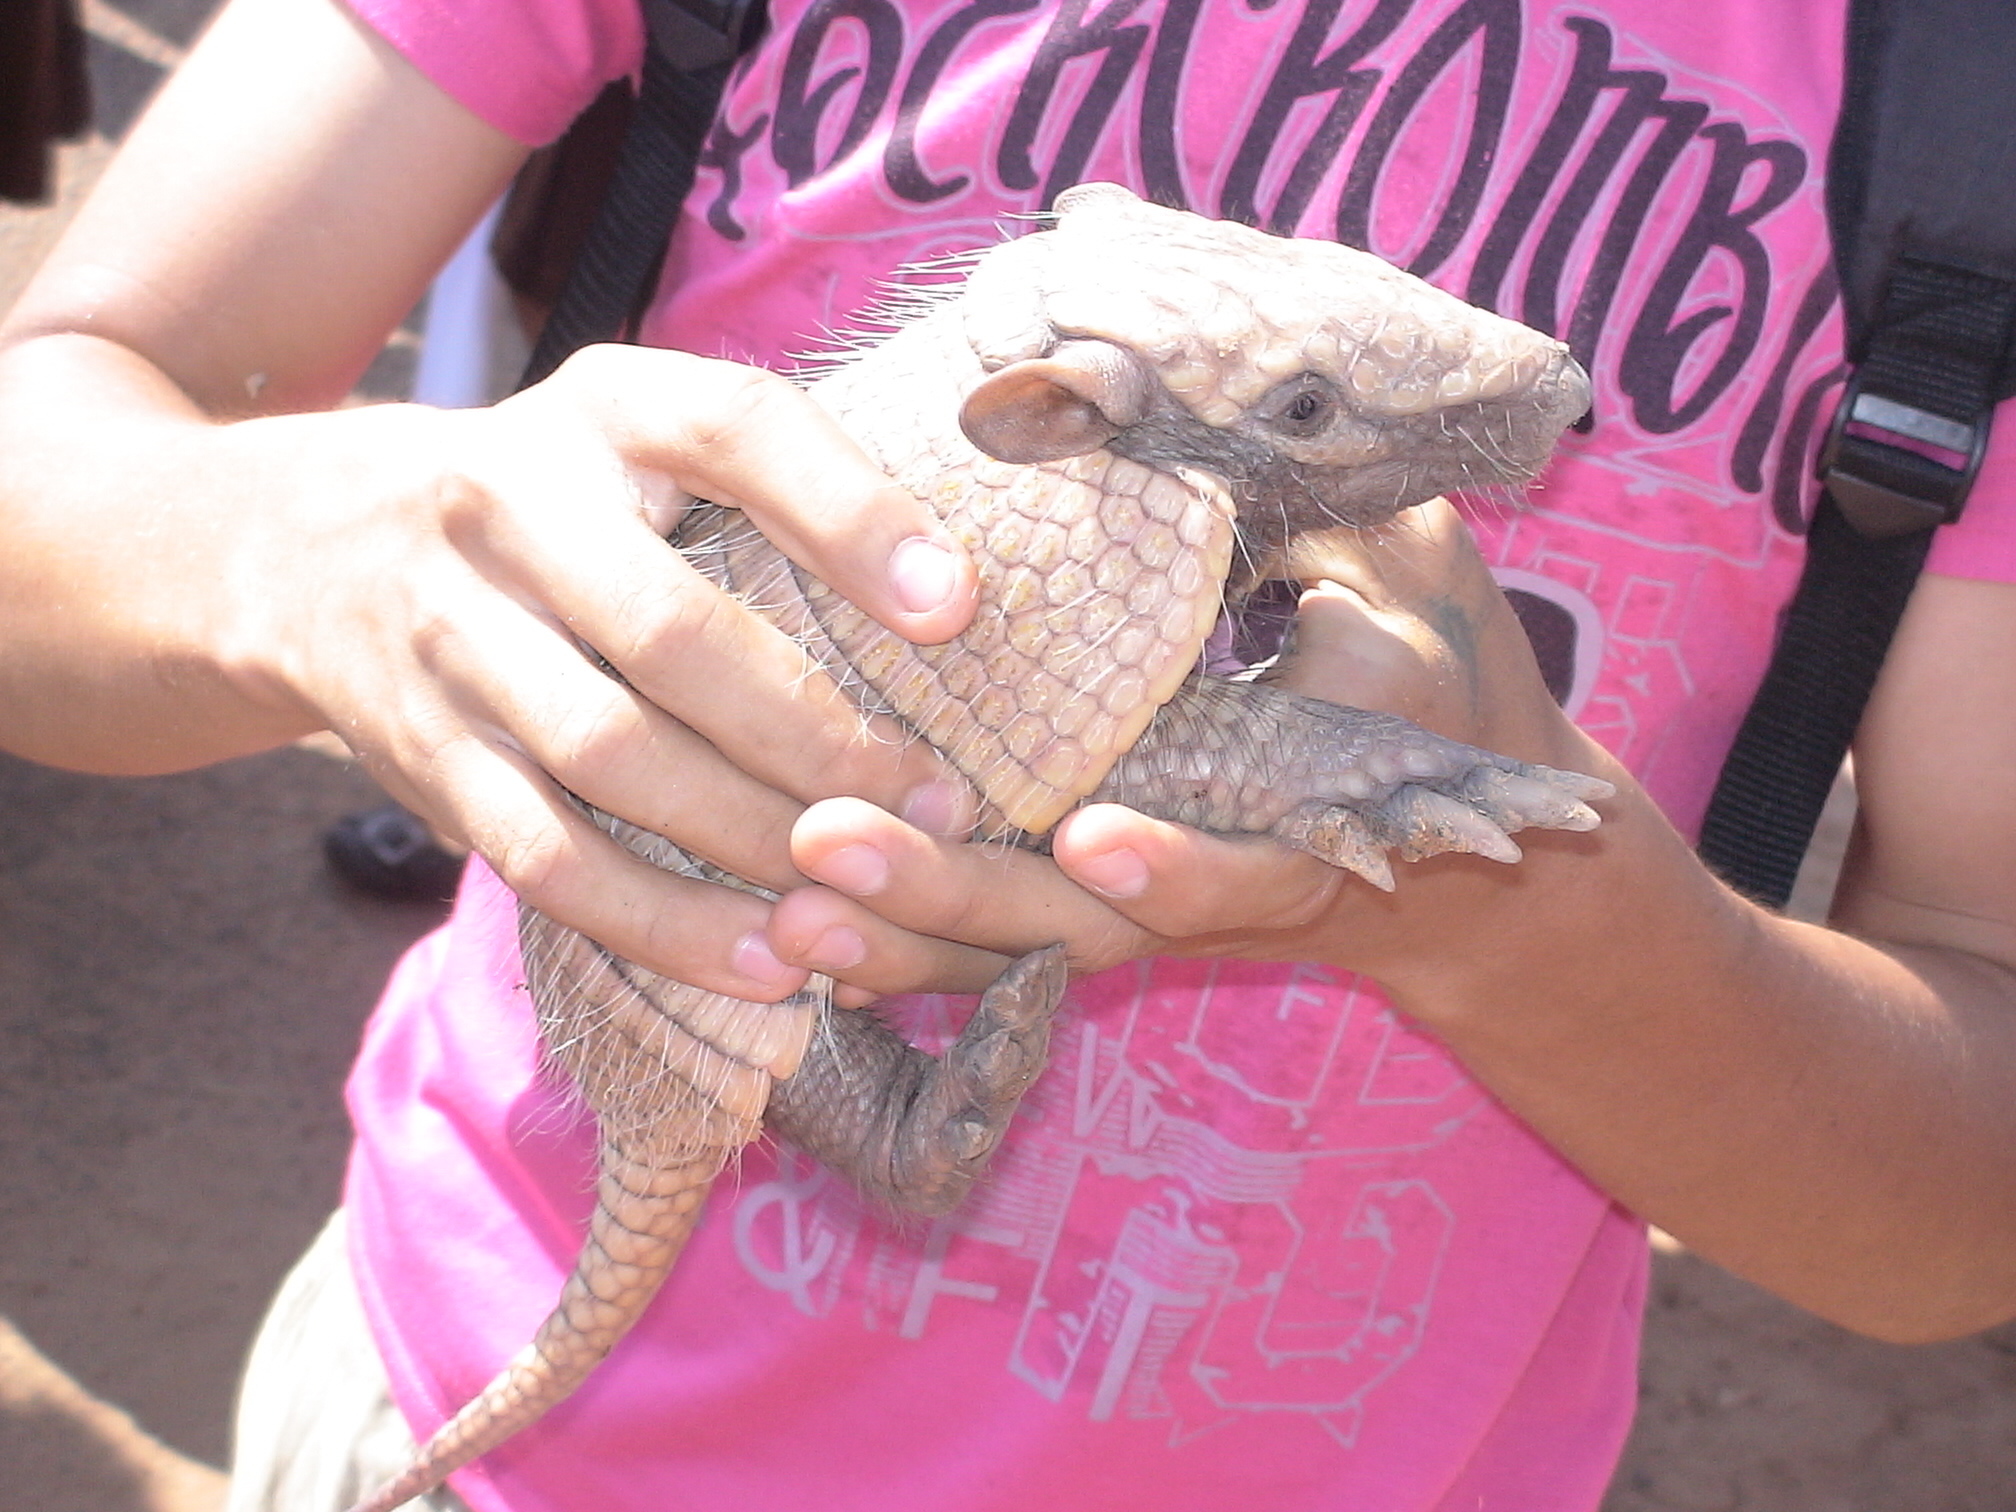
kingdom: Animalia
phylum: Chordata
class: Mammalia
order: Cingulata
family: Dasypodidae
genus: Euphractus
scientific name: Euphractus sexcinctus
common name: Six-banded armadillo
